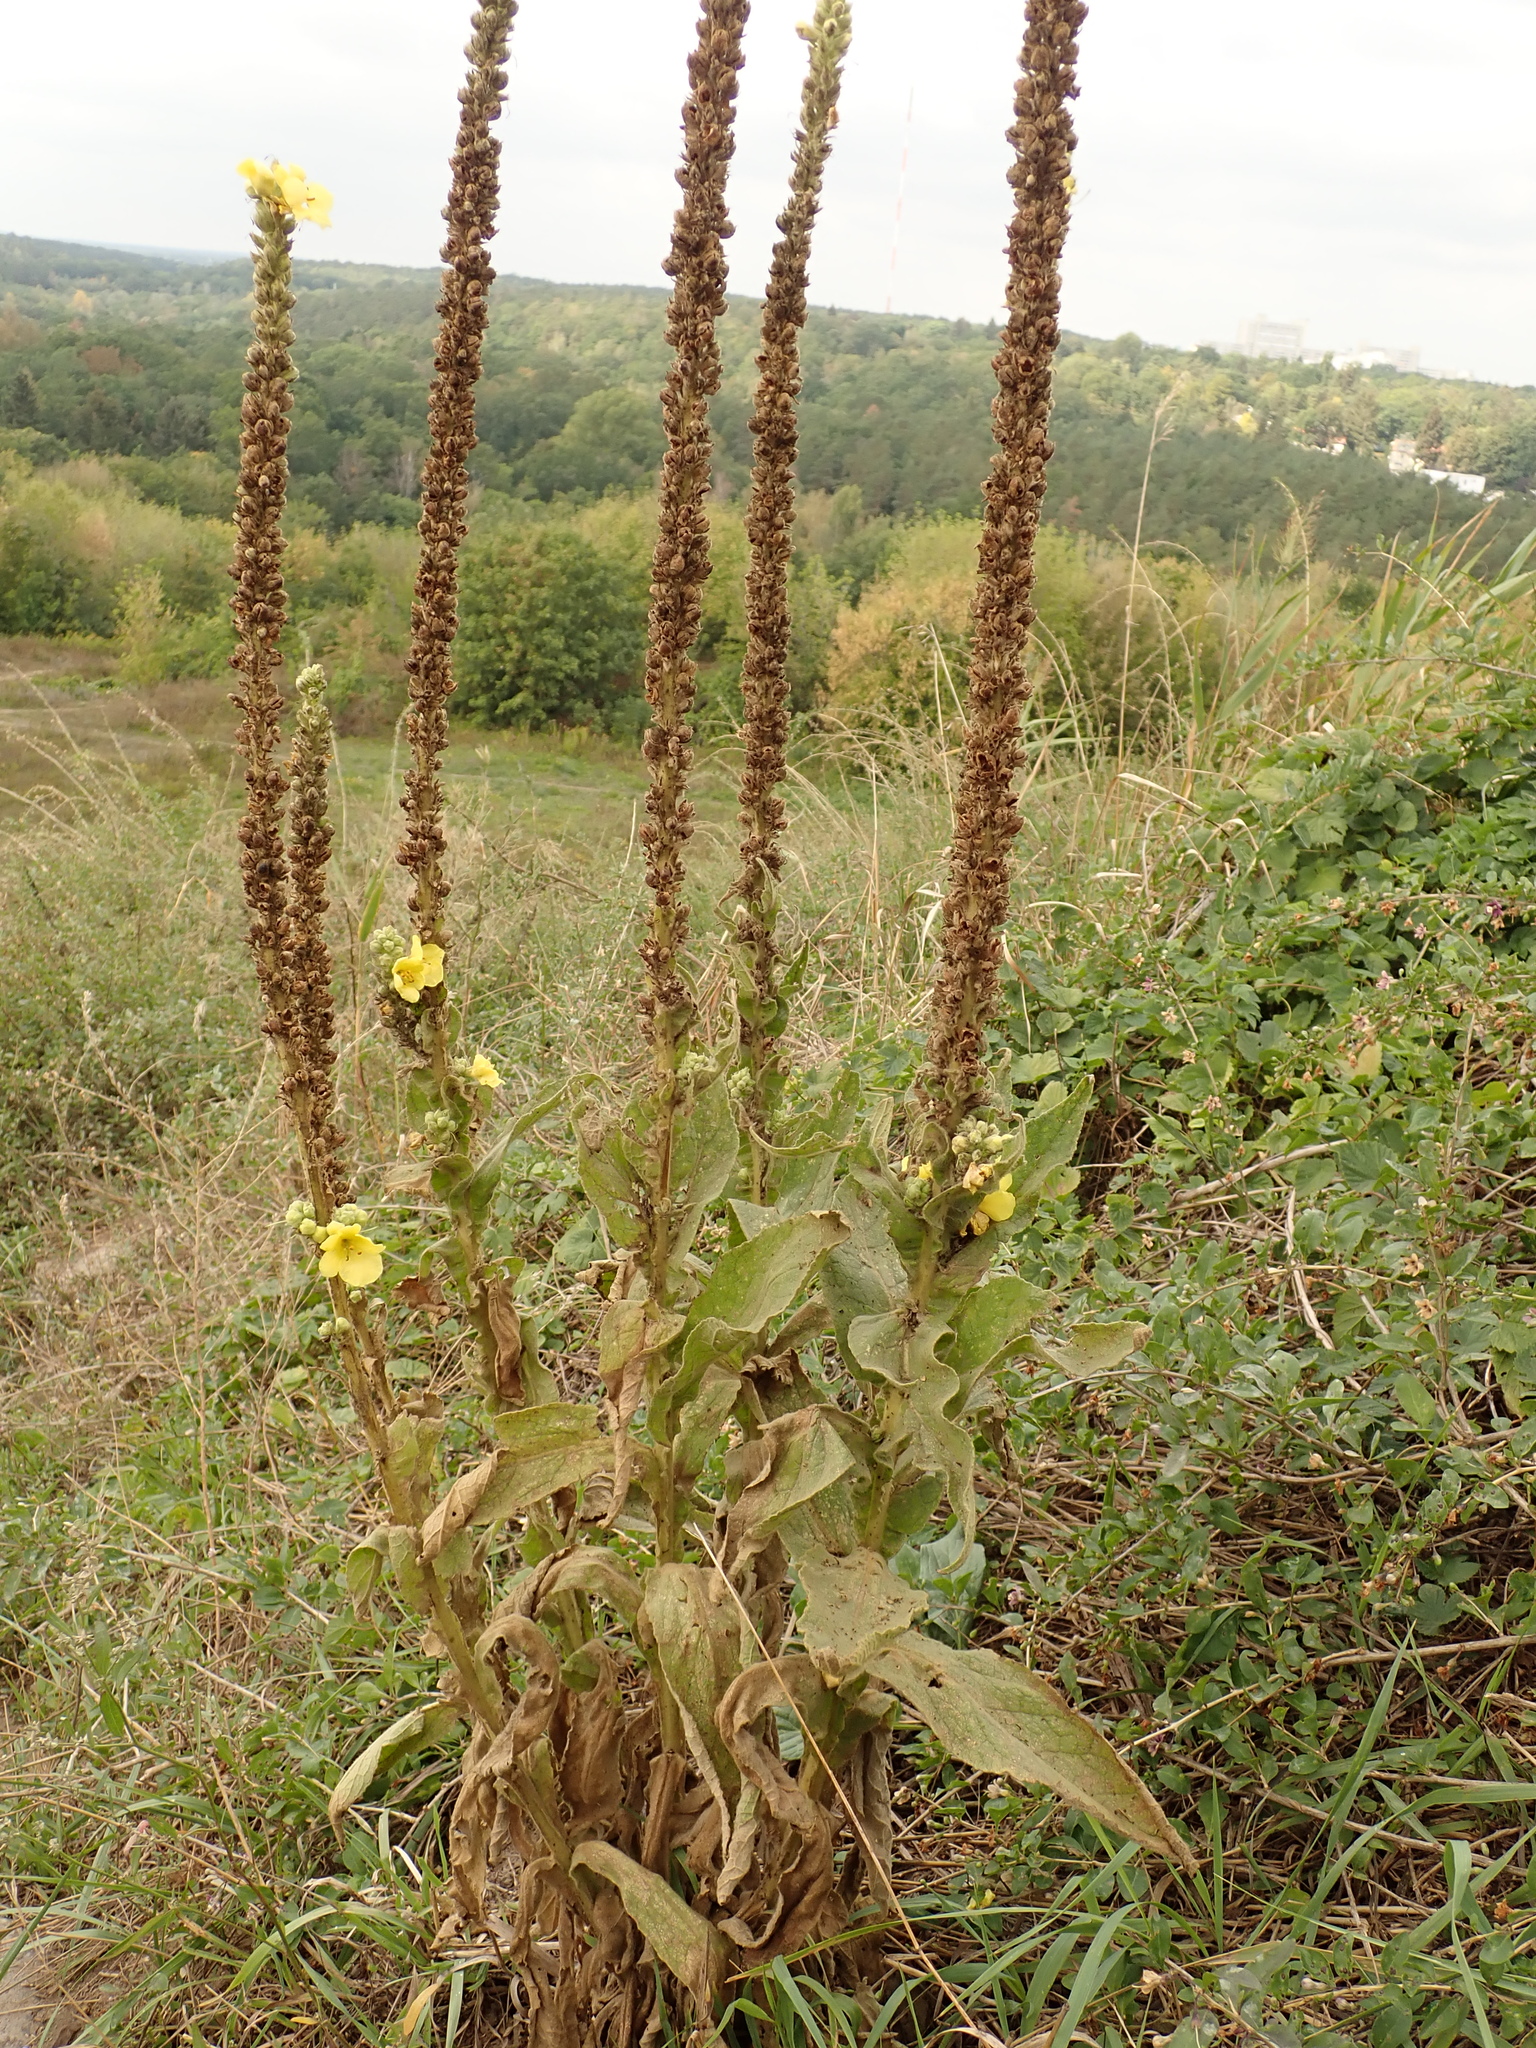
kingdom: Plantae
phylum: Tracheophyta
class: Magnoliopsida
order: Lamiales
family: Scrophulariaceae
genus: Verbascum
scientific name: Verbascum thapsus
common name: Common mullein
